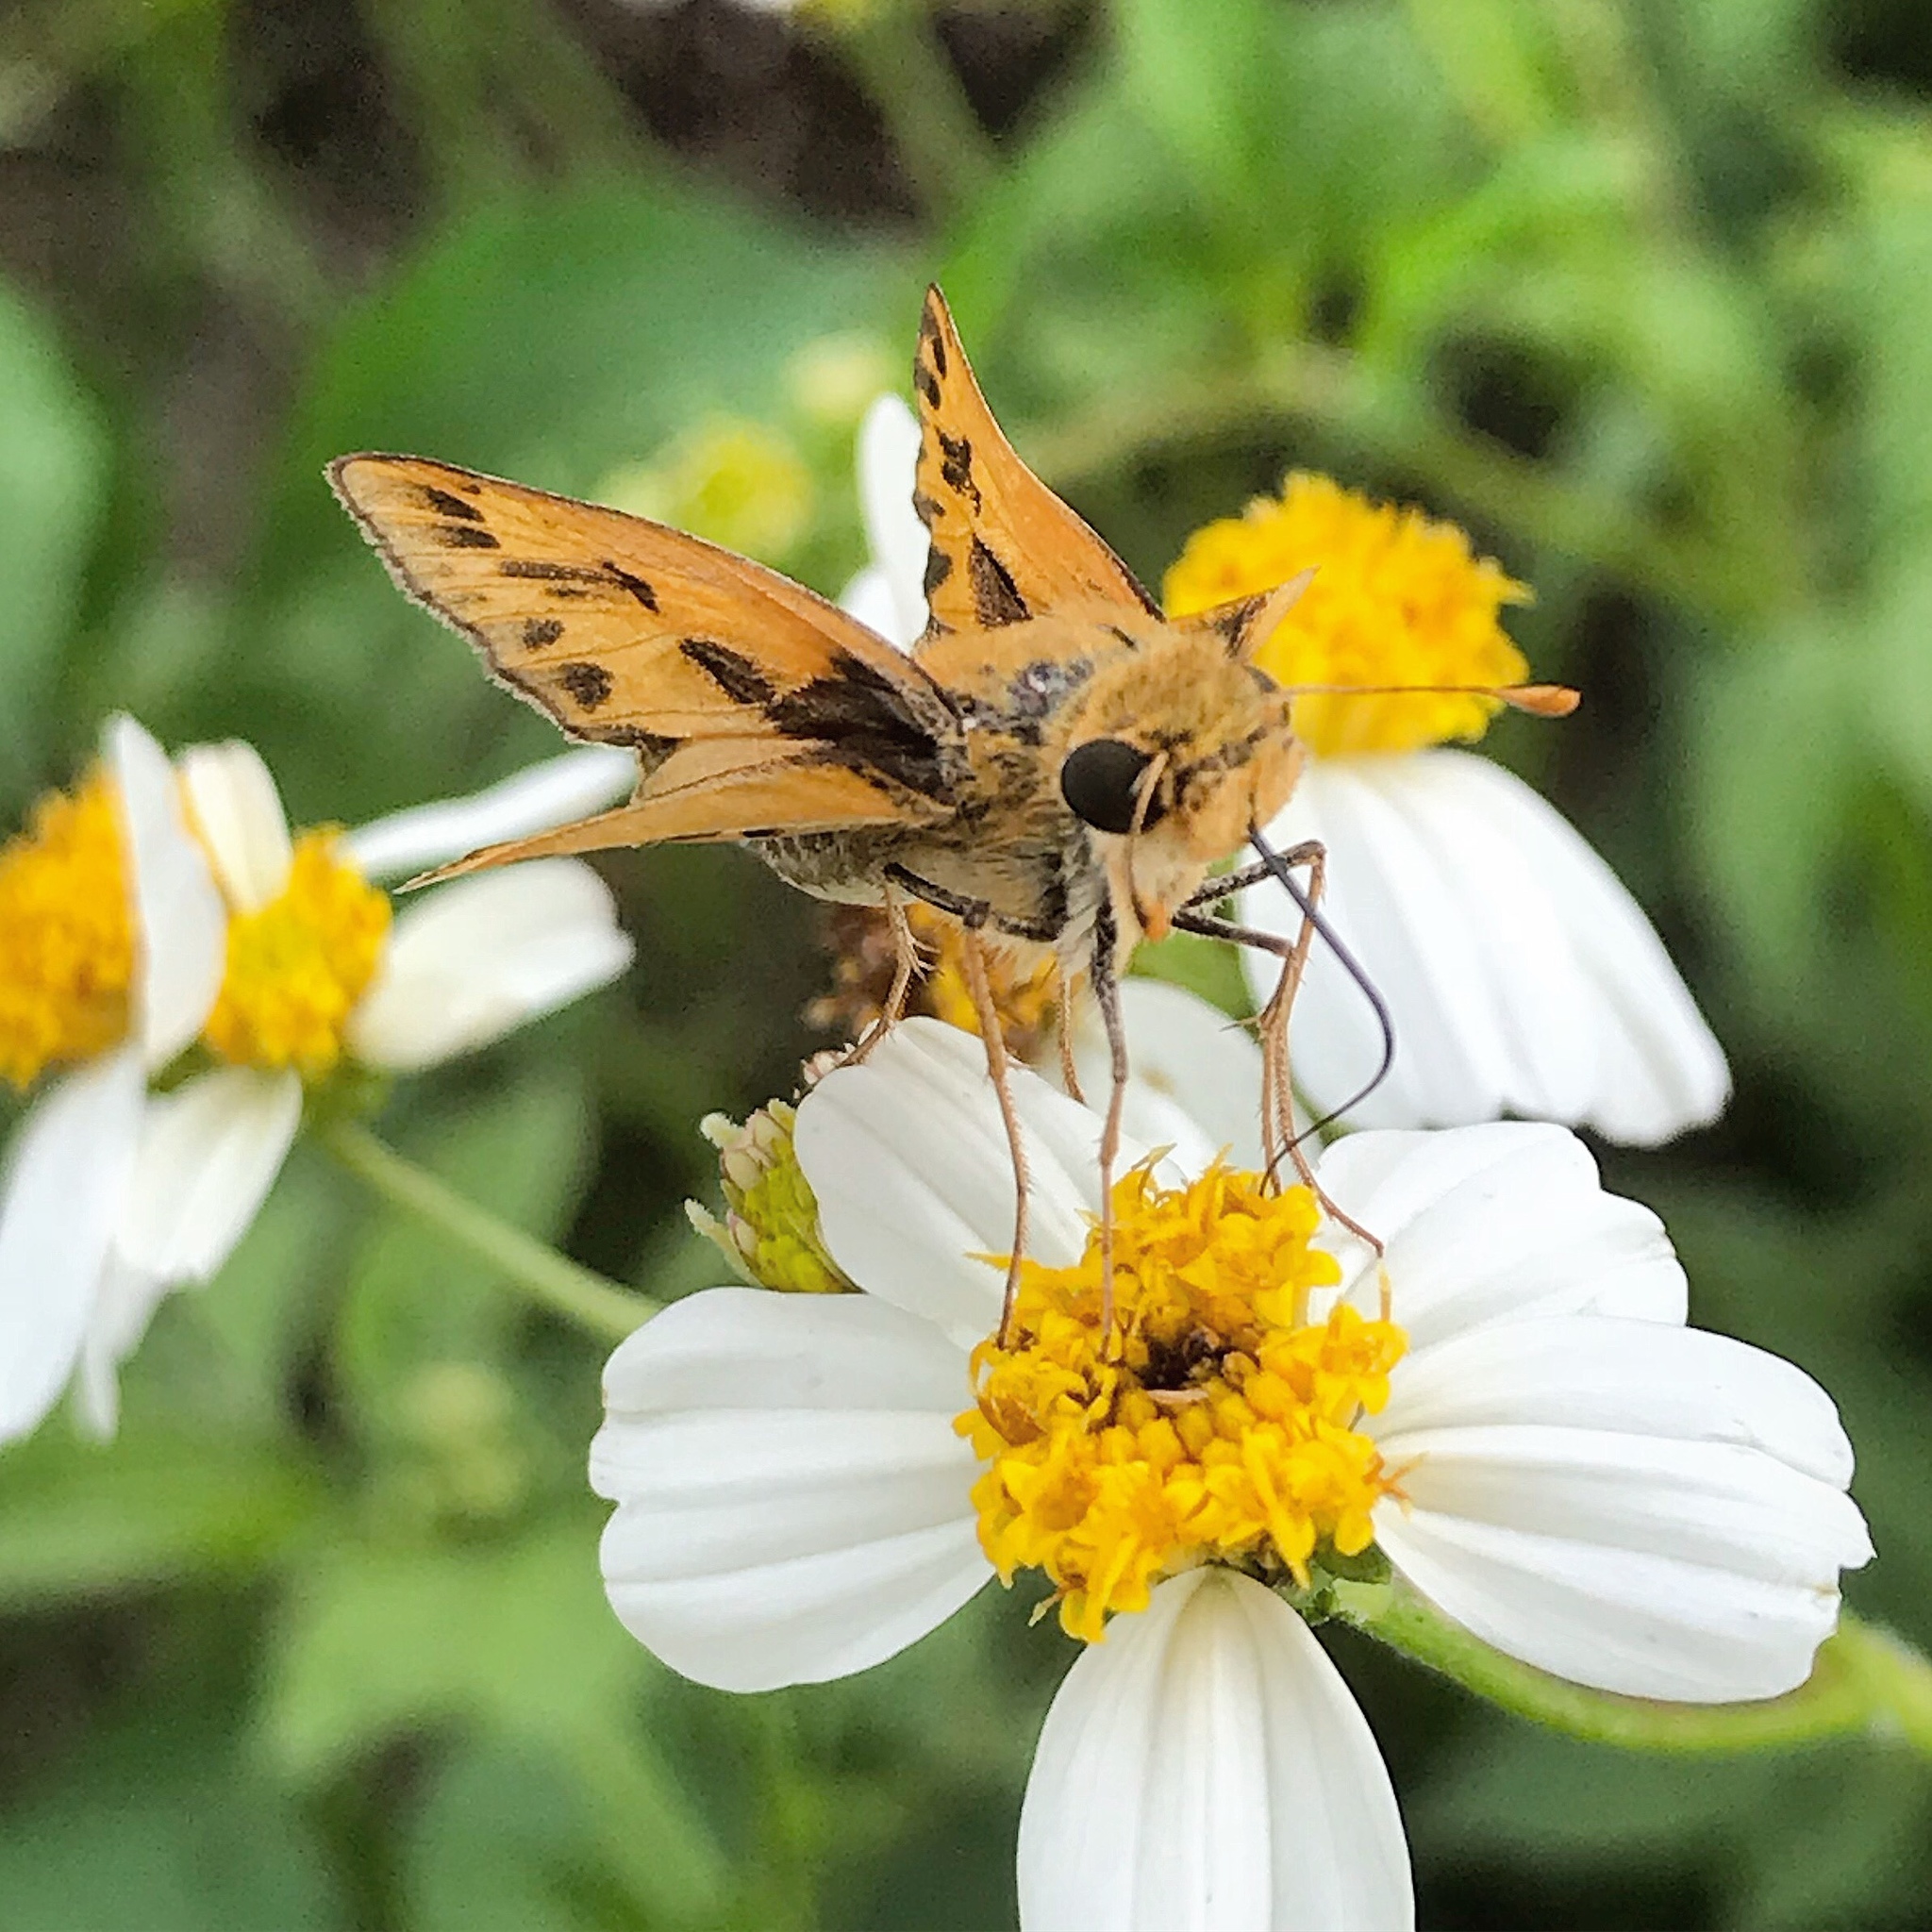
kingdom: Animalia
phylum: Arthropoda
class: Insecta
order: Lepidoptera
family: Hesperiidae
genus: Hylephila
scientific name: Hylephila phyleus
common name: Fiery skipper
